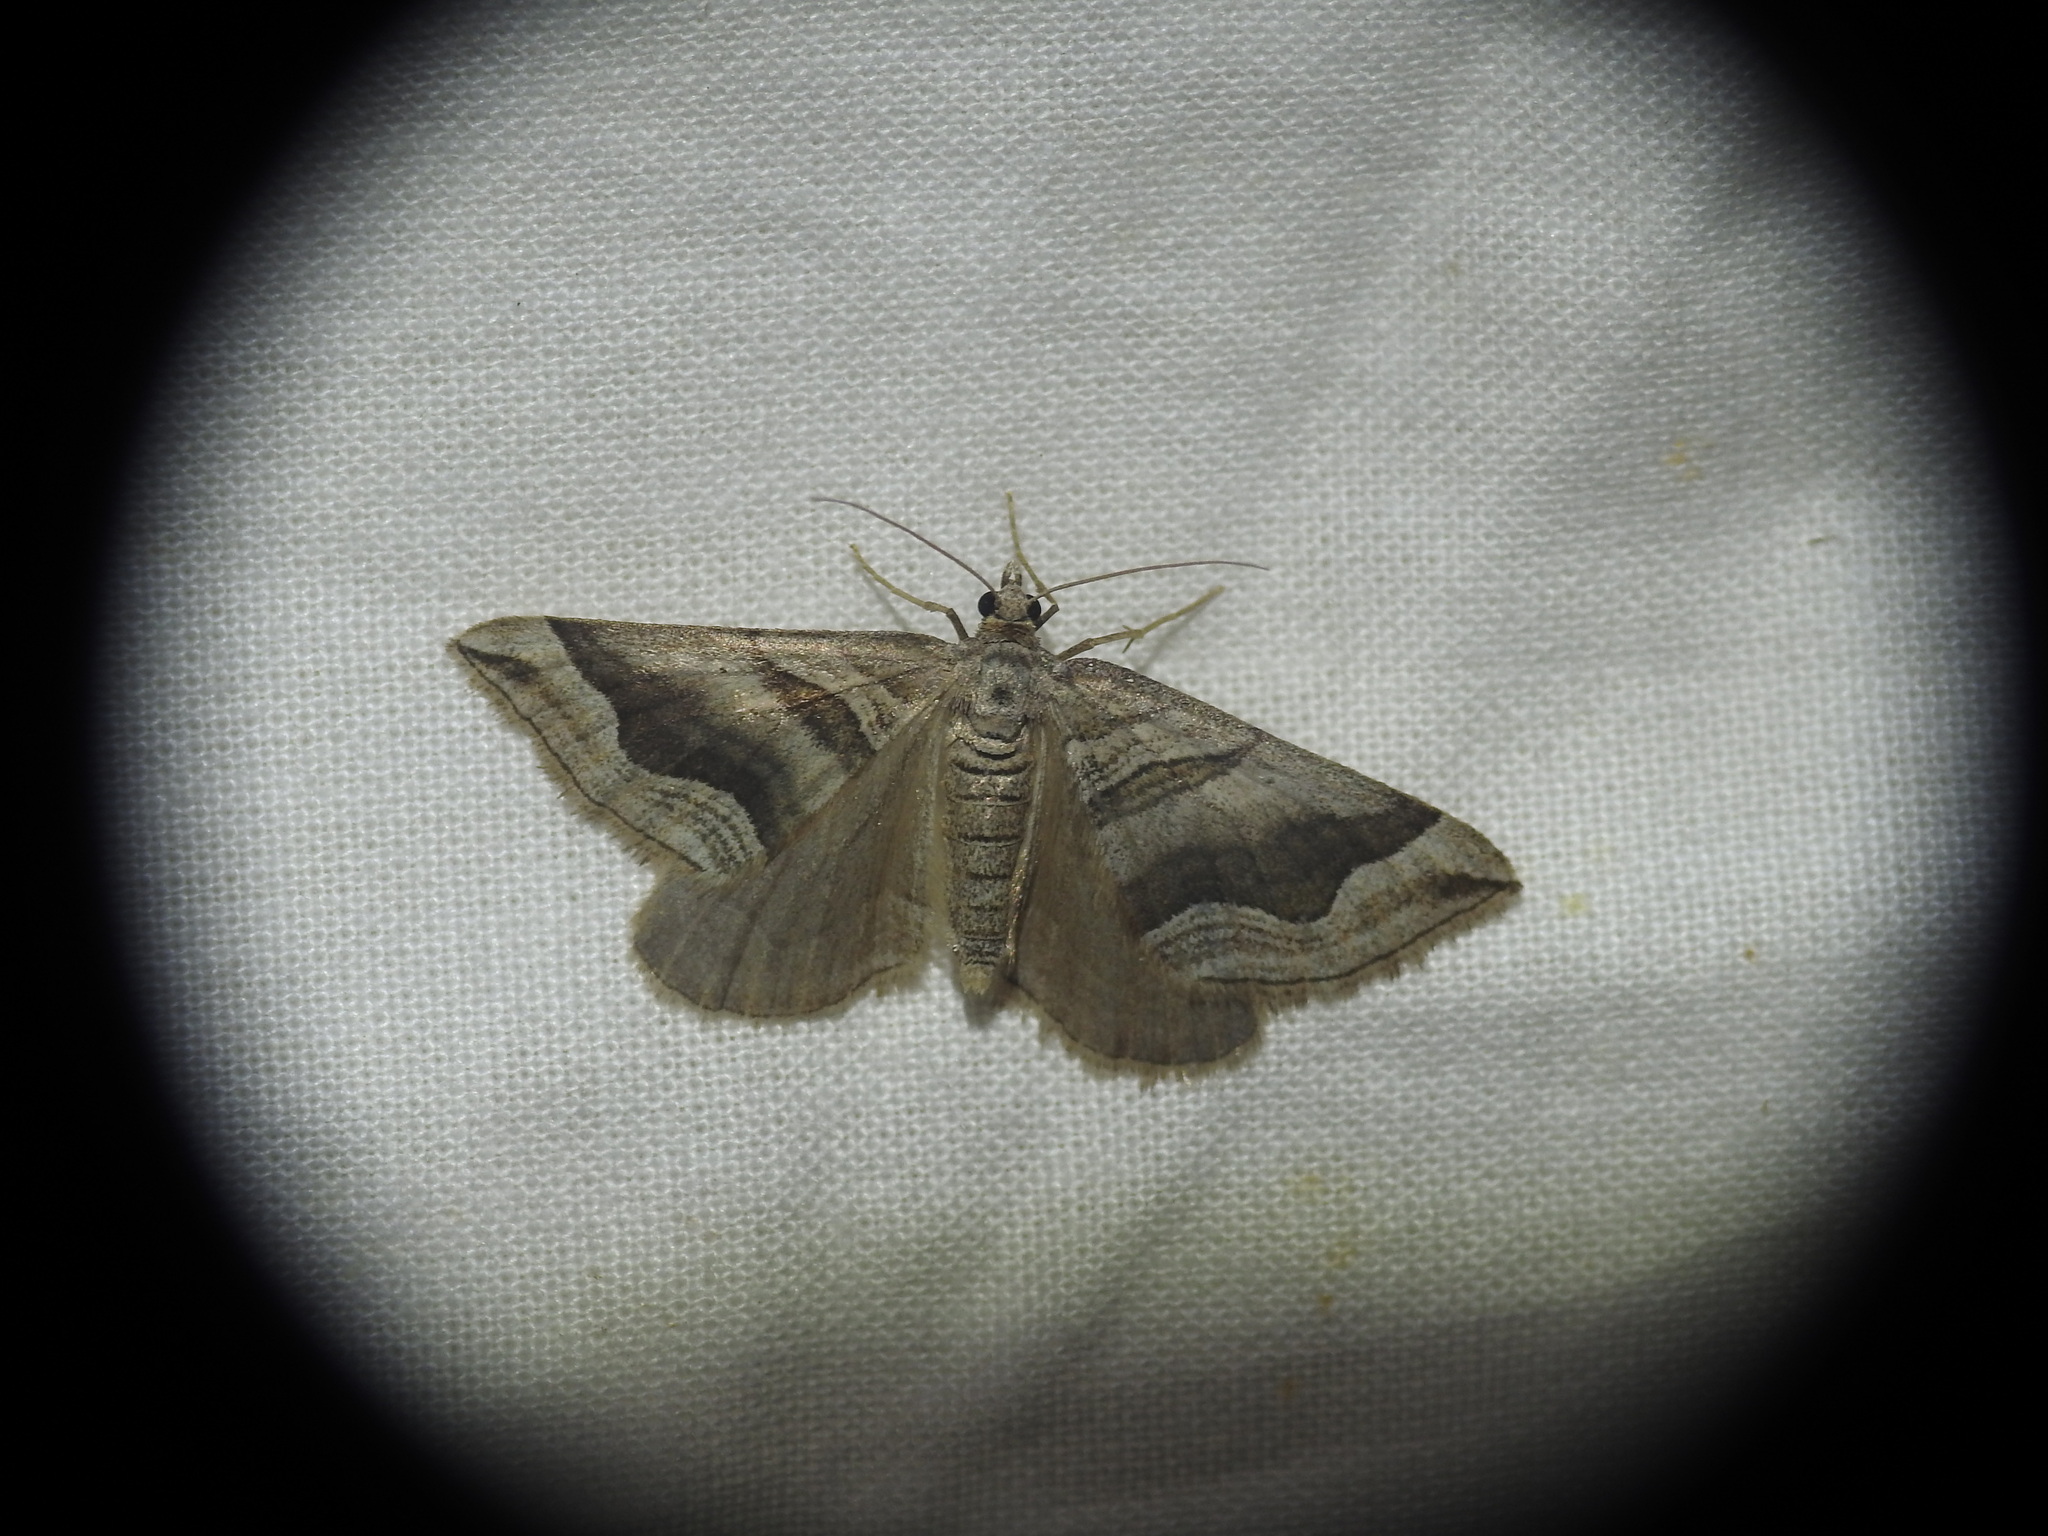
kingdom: Animalia
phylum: Arthropoda
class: Insecta
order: Lepidoptera
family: Geometridae
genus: Scotopteryx
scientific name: Scotopteryx peribolata
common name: Spanish carpet
